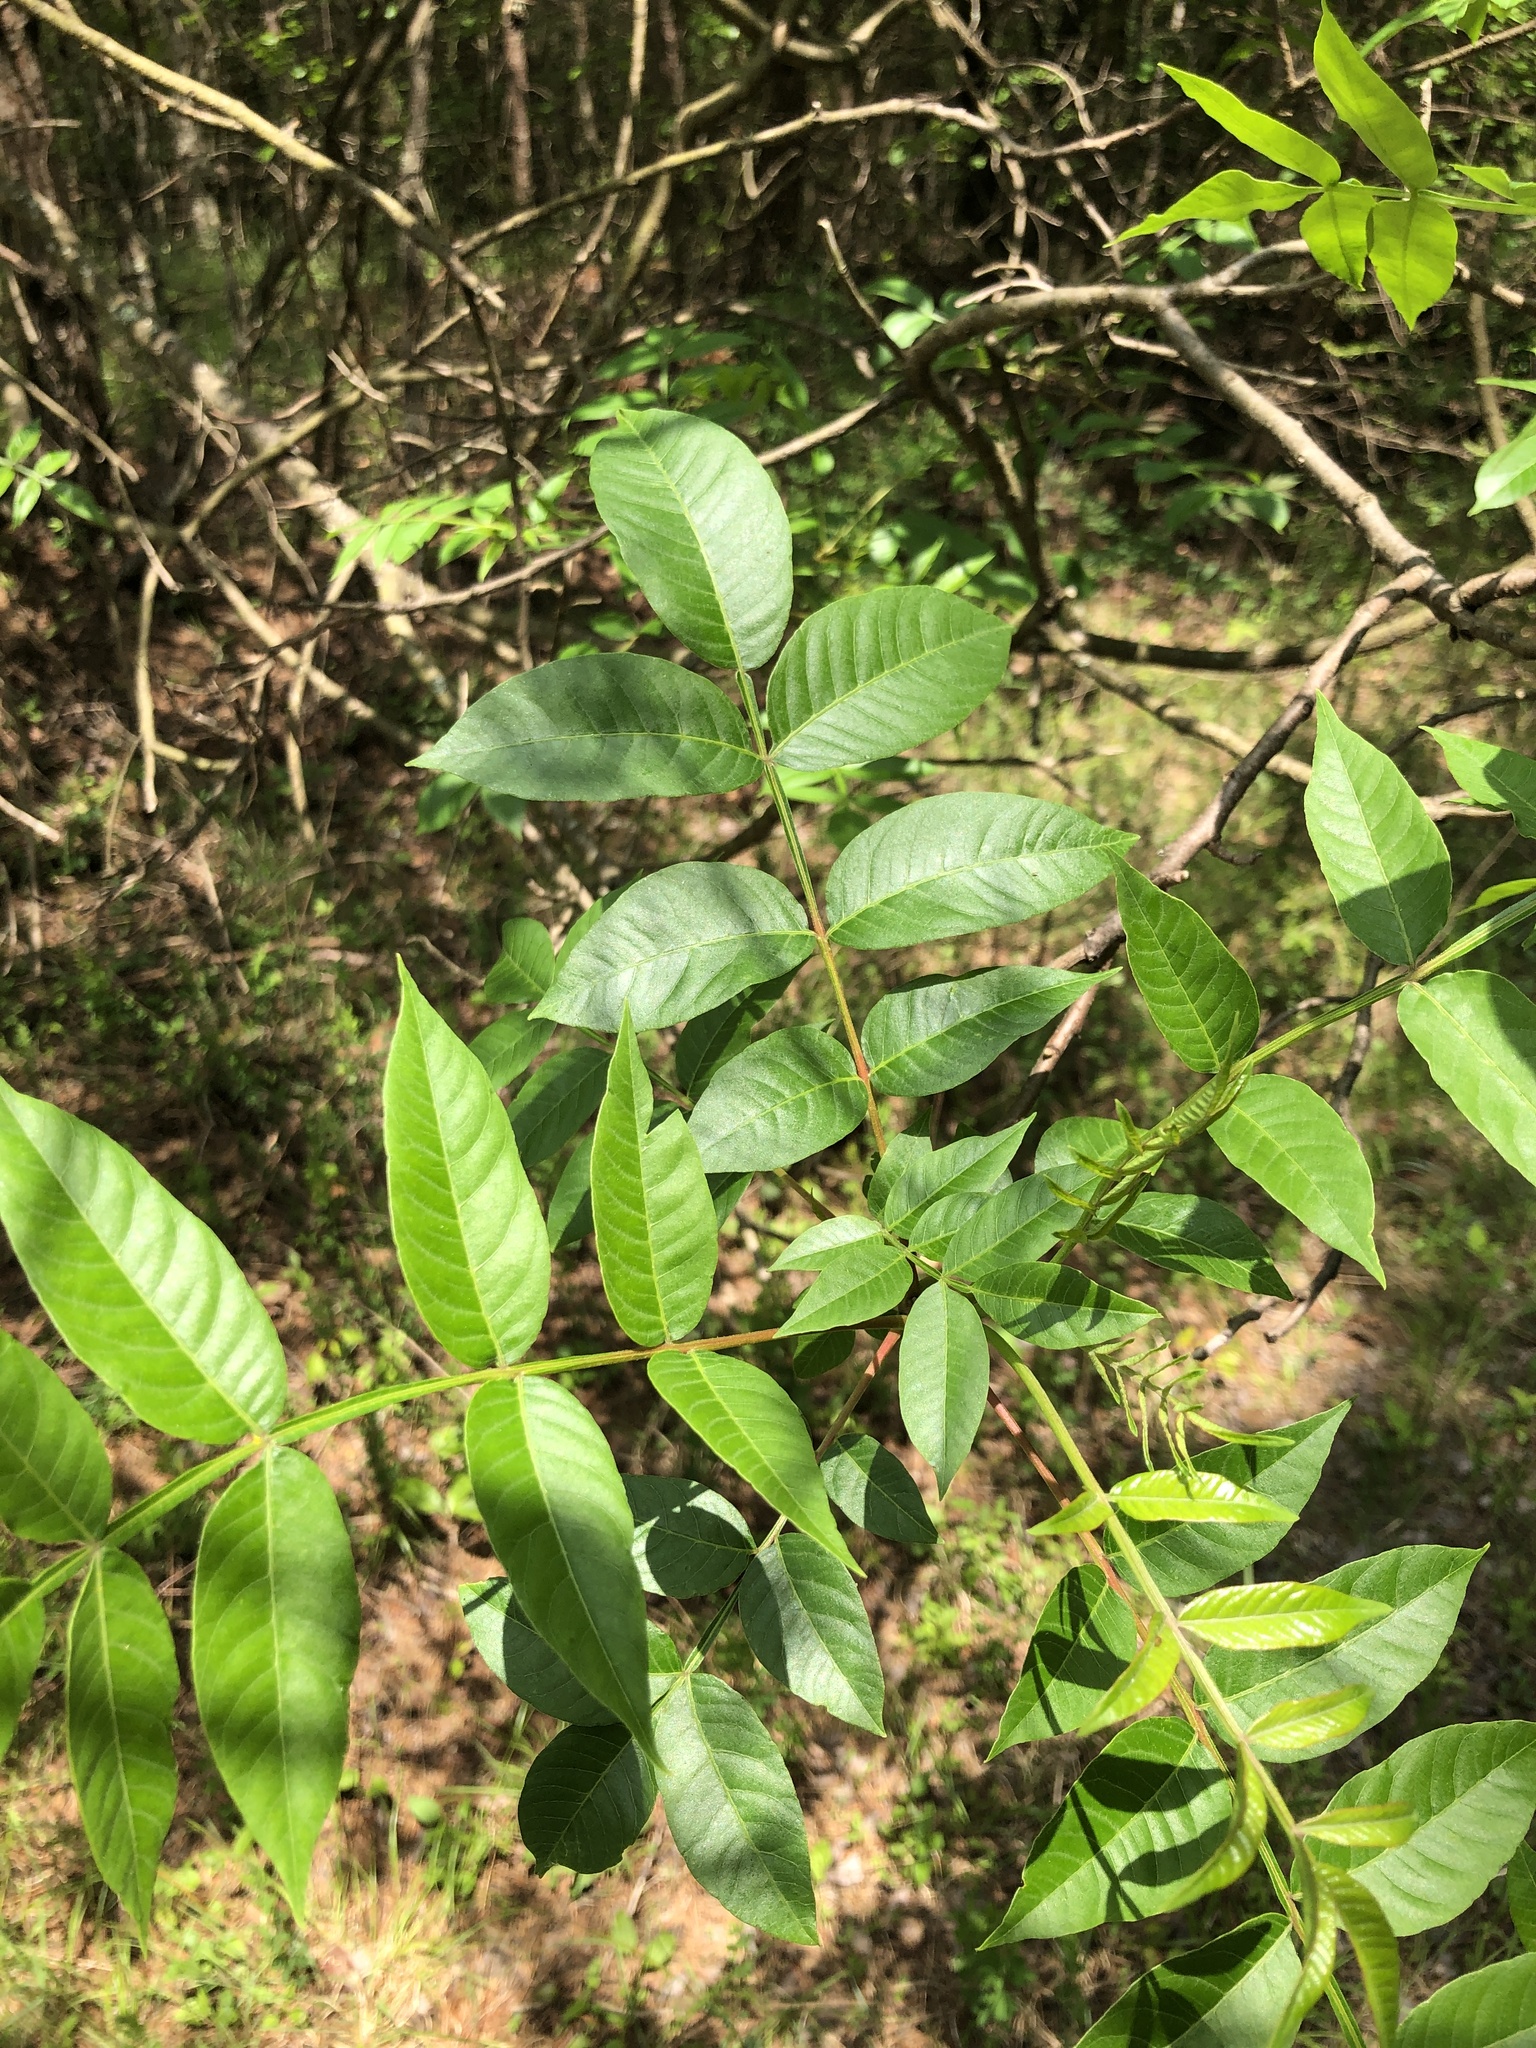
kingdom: Plantae
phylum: Tracheophyta
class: Magnoliopsida
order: Sapindales
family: Anacardiaceae
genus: Rhus
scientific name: Rhus copallina
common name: Shining sumac
